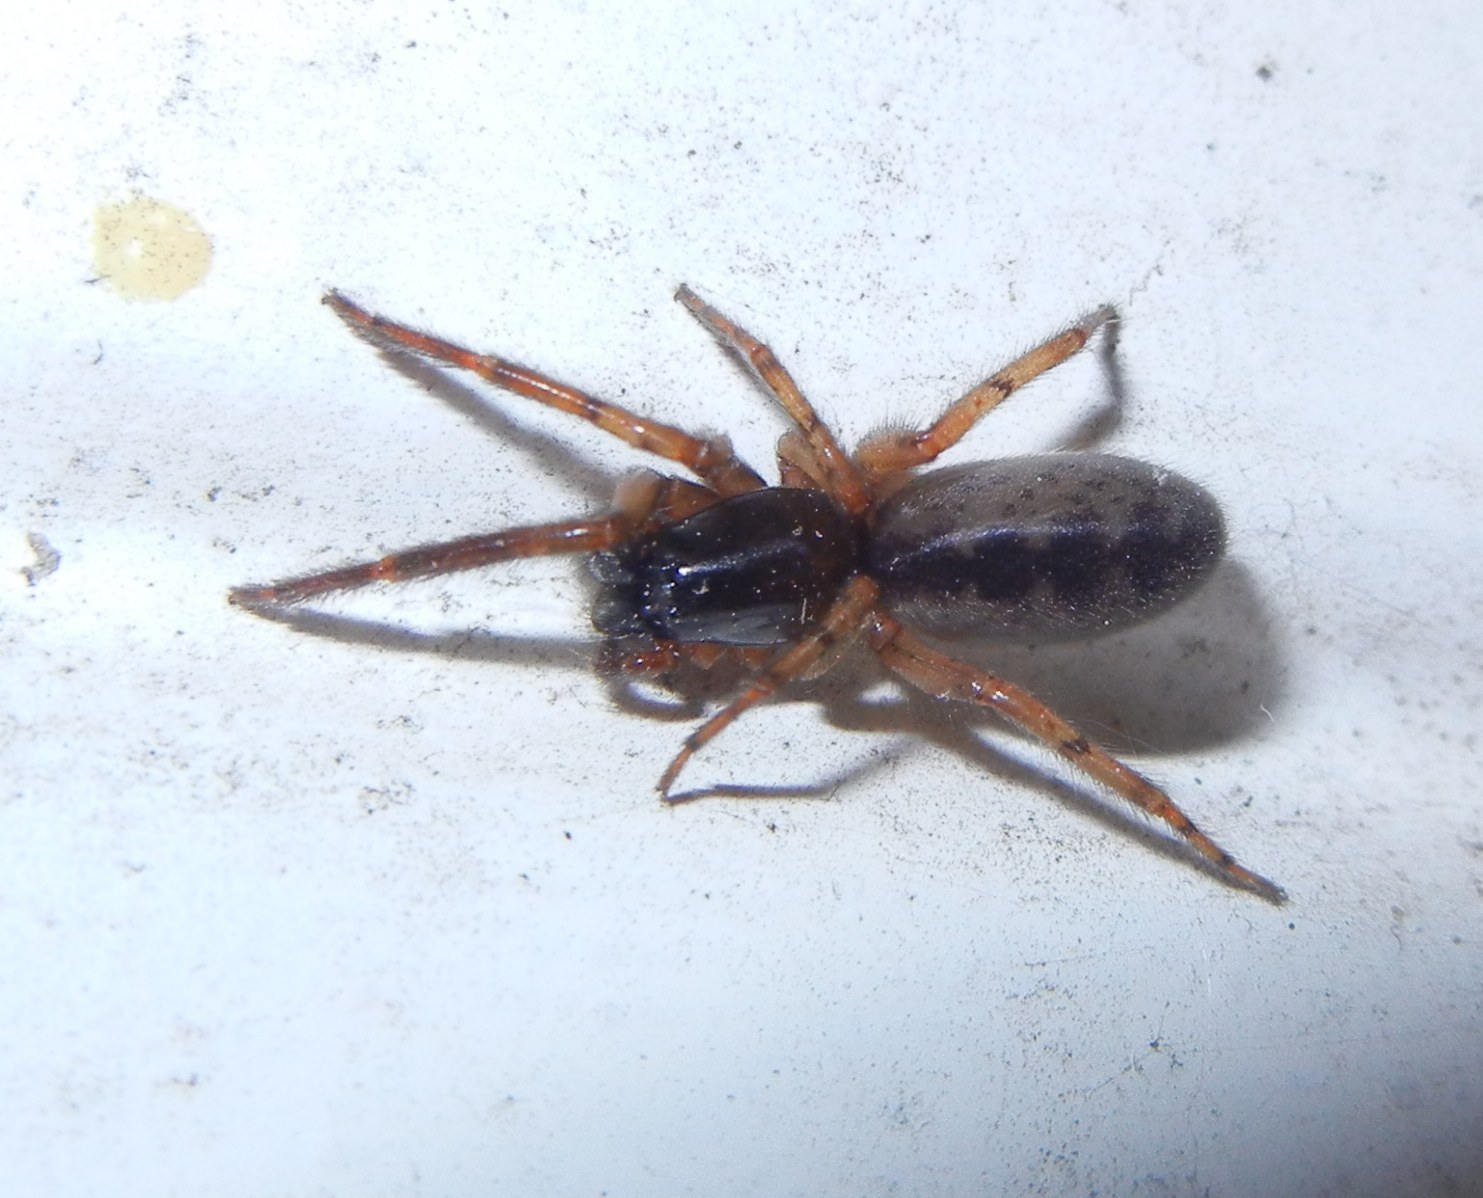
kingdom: Animalia
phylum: Arthropoda
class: Arachnida
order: Araneae
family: Segestriidae
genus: Segestria
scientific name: Segestria senoculata
